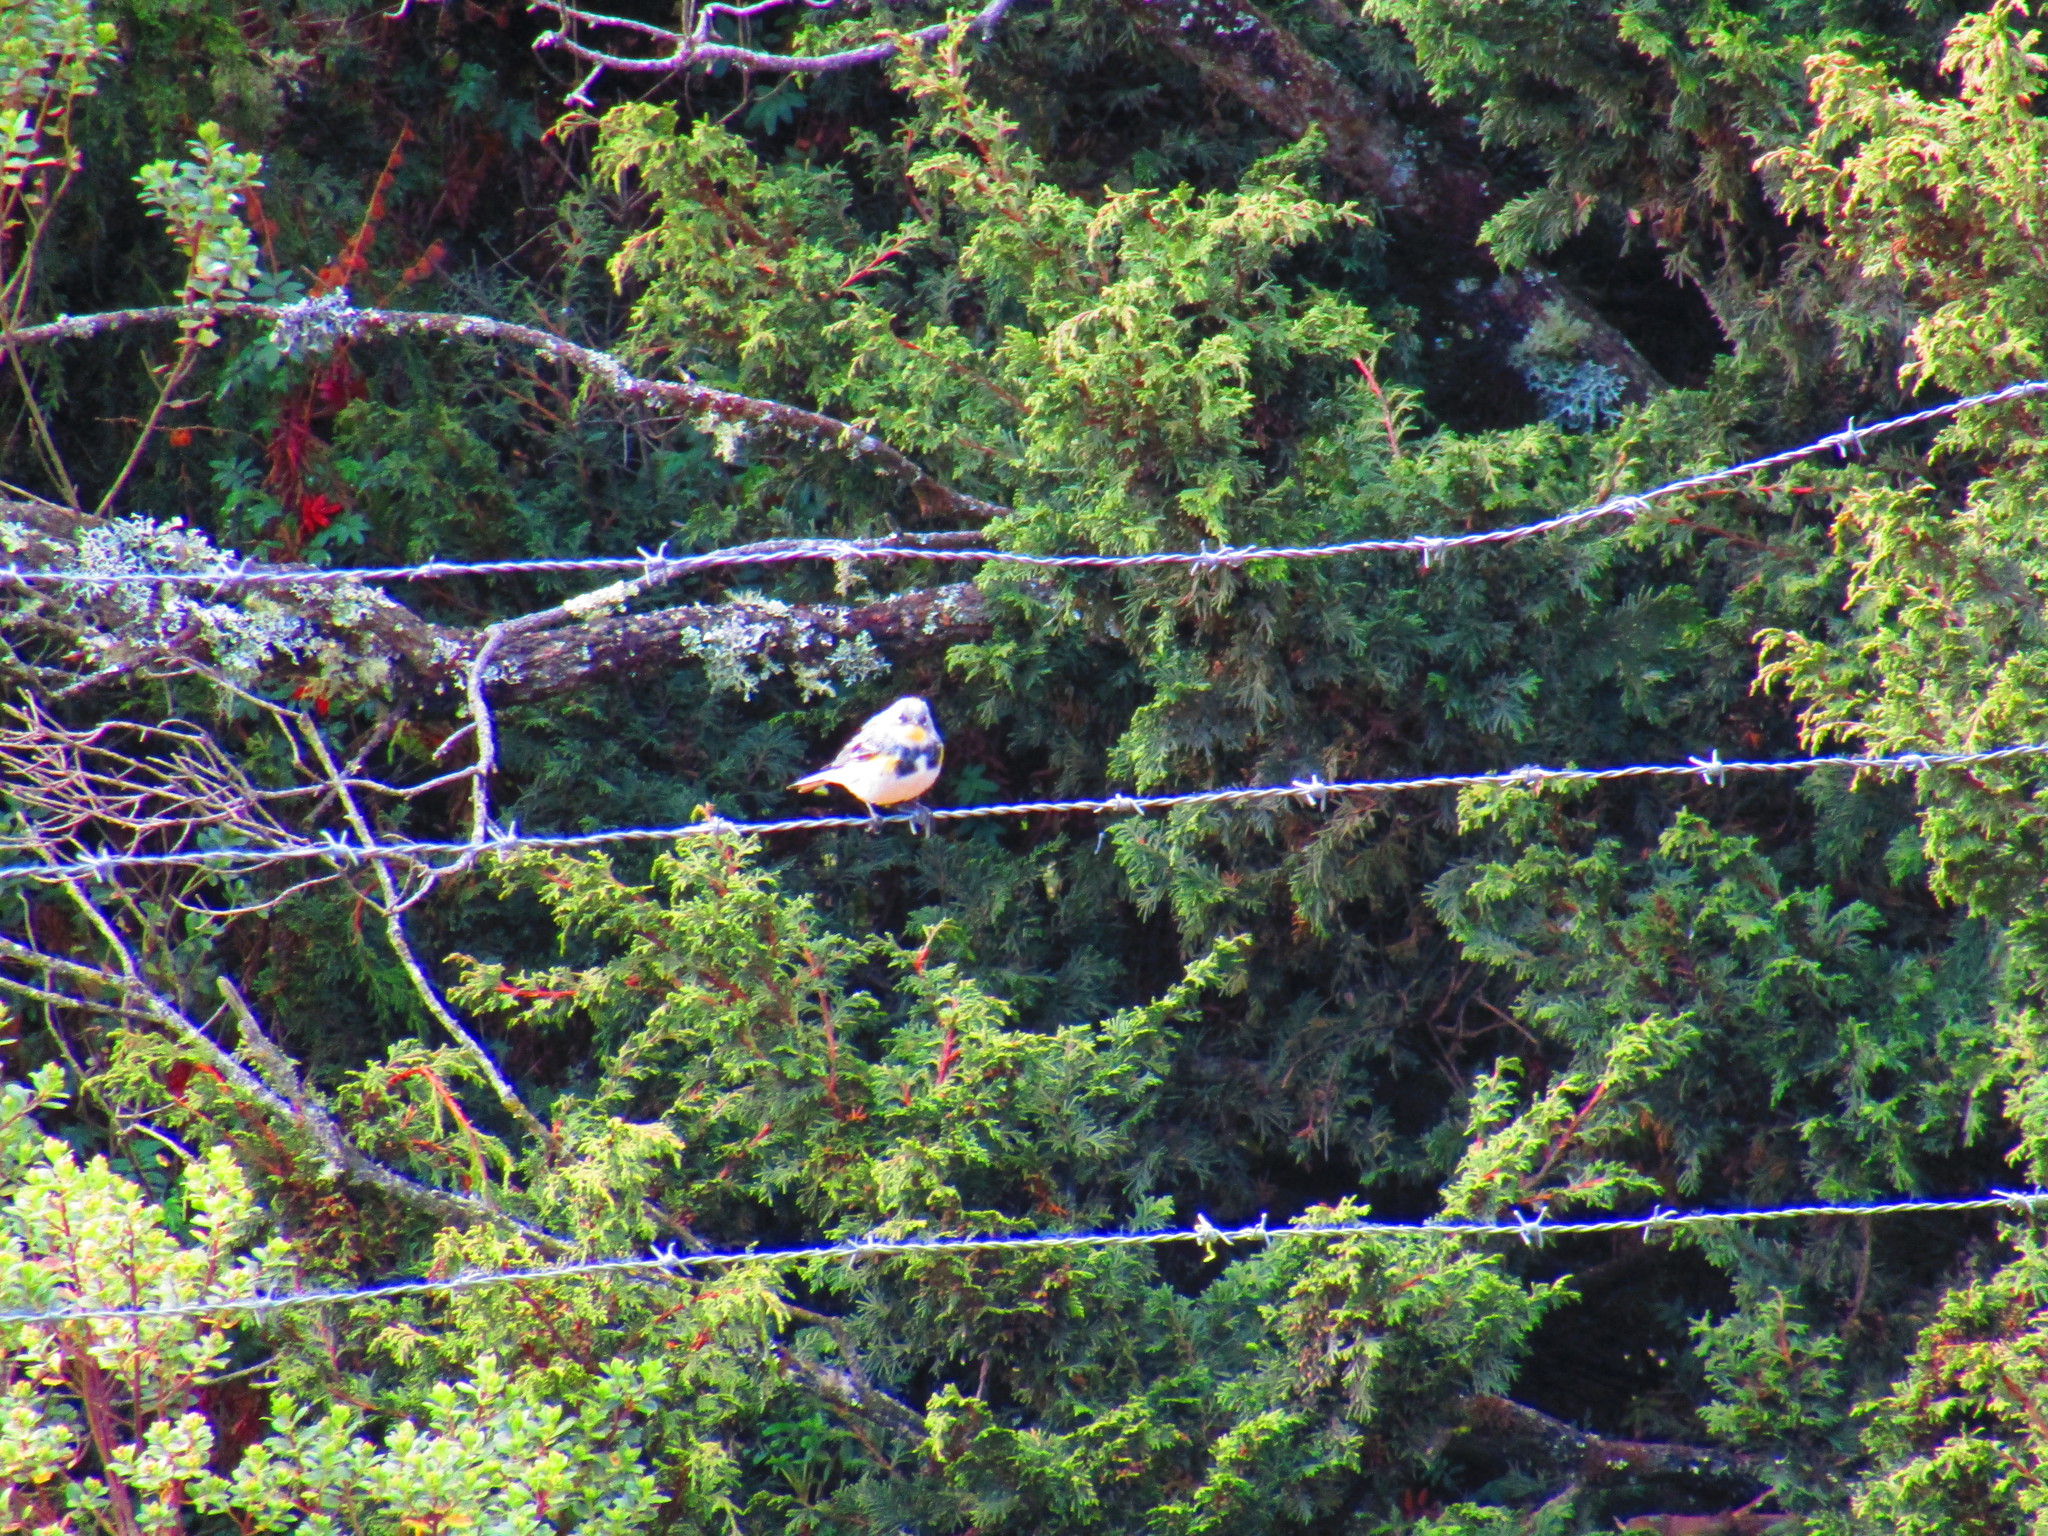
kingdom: Animalia
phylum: Chordata
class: Aves
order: Passeriformes
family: Parulidae
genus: Setophaga
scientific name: Setophaga coronata
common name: Myrtle warbler
